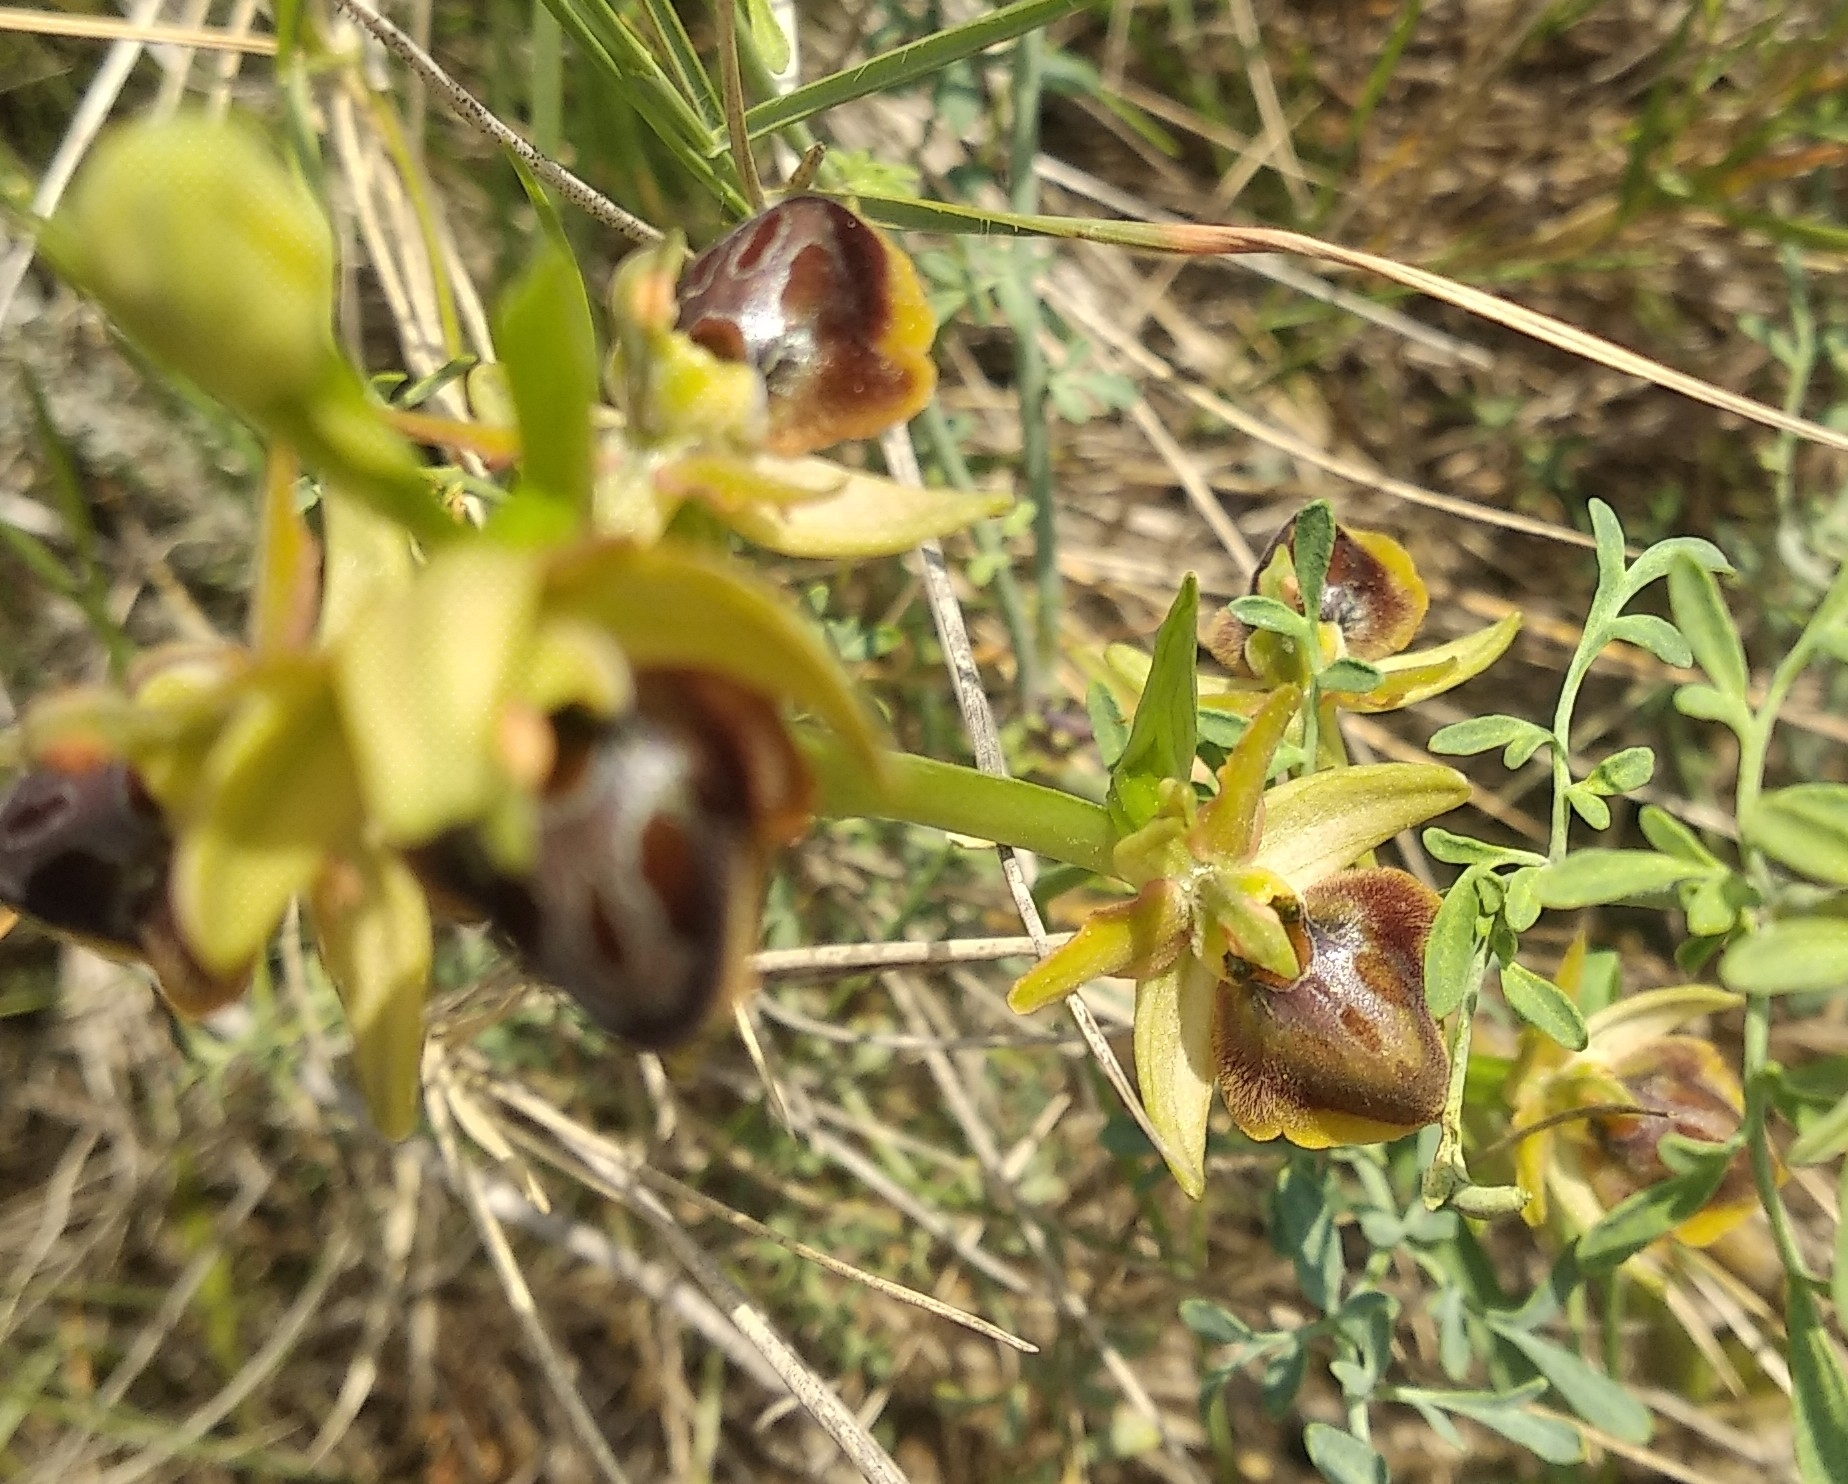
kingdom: Plantae
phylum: Tracheophyta
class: Liliopsida
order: Asparagales
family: Orchidaceae
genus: Ophrys
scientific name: Ophrys sphegodes
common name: Early spider-orchid
